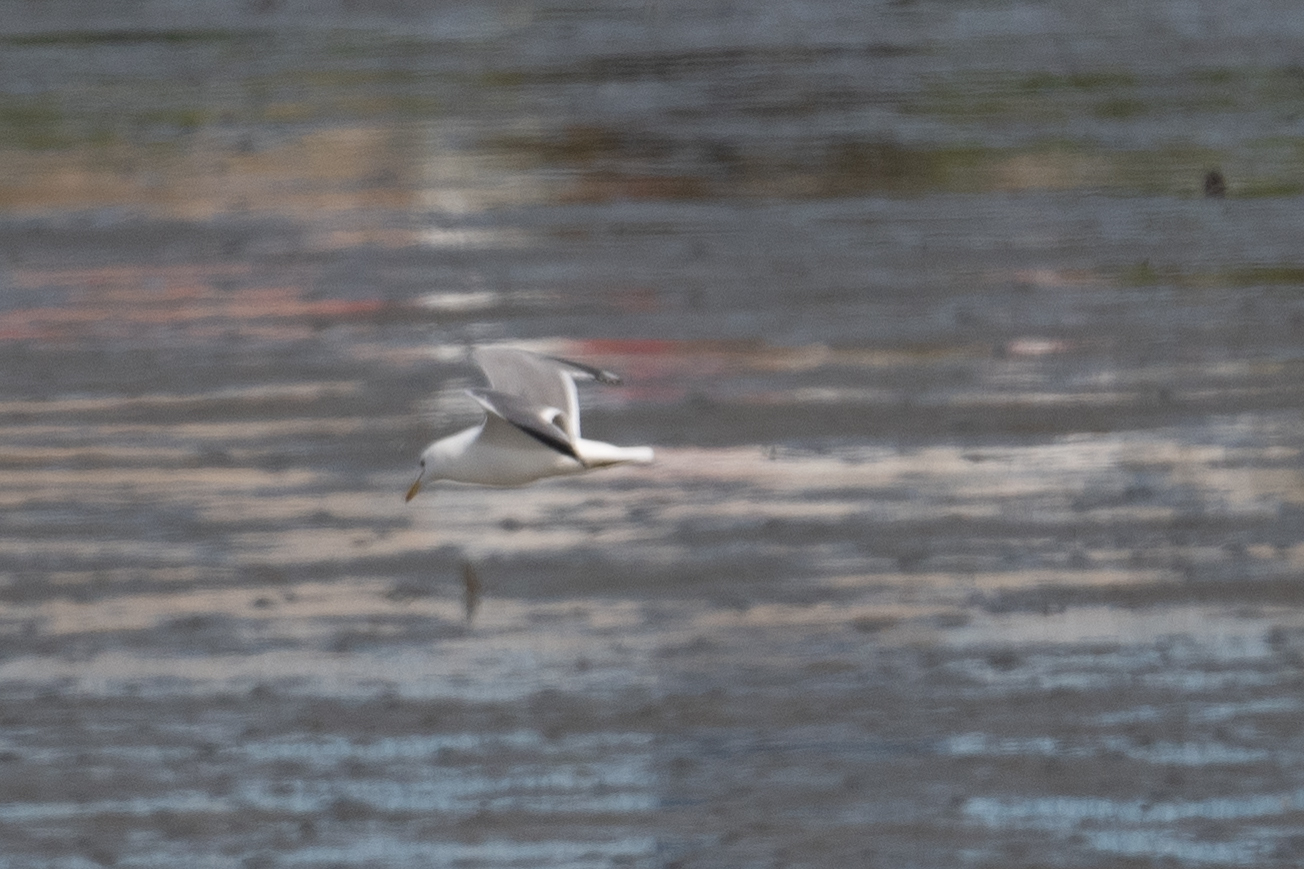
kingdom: Animalia
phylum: Chordata
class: Aves
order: Charadriiformes
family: Laridae
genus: Larus
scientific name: Larus californicus
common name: California gull
